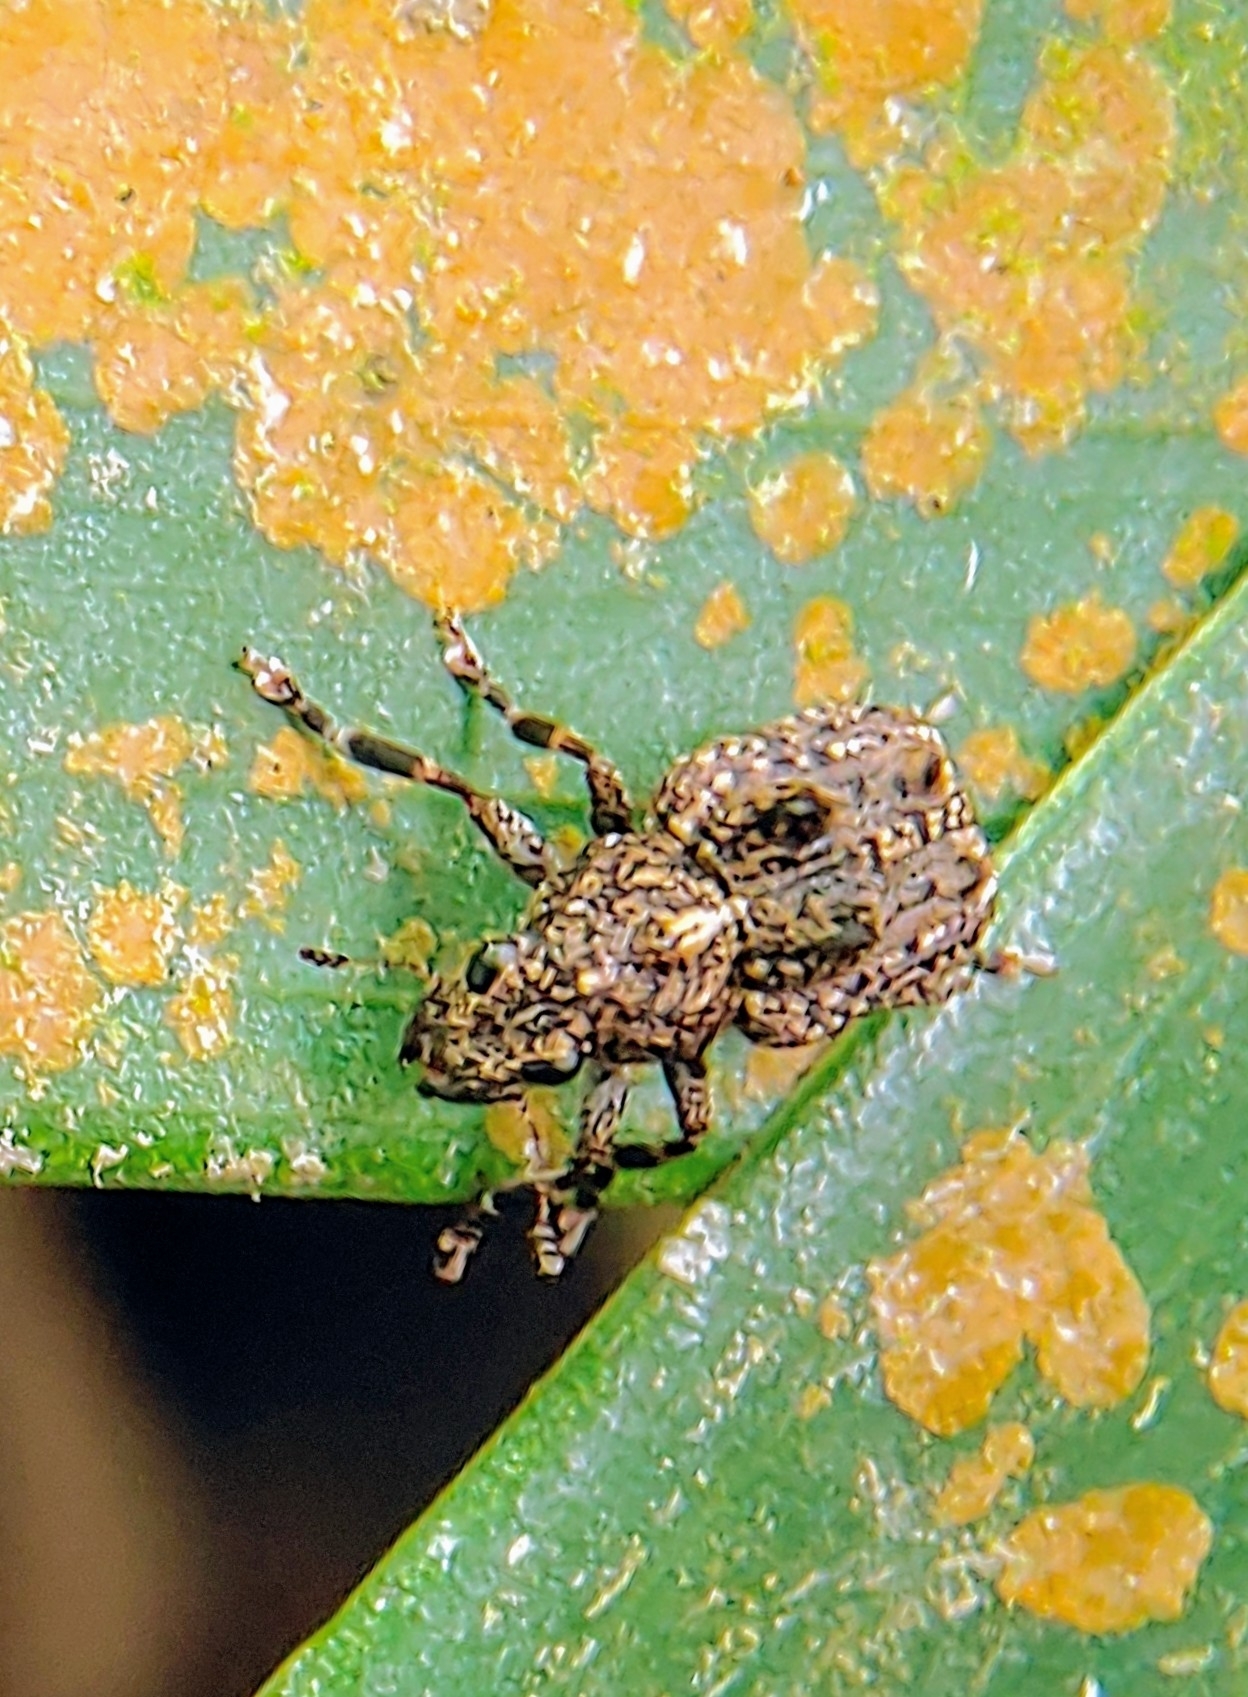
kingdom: Animalia
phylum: Arthropoda
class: Insecta
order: Coleoptera
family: Anthribidae
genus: Pantorhaenas
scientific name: Pantorhaenas conspersus
